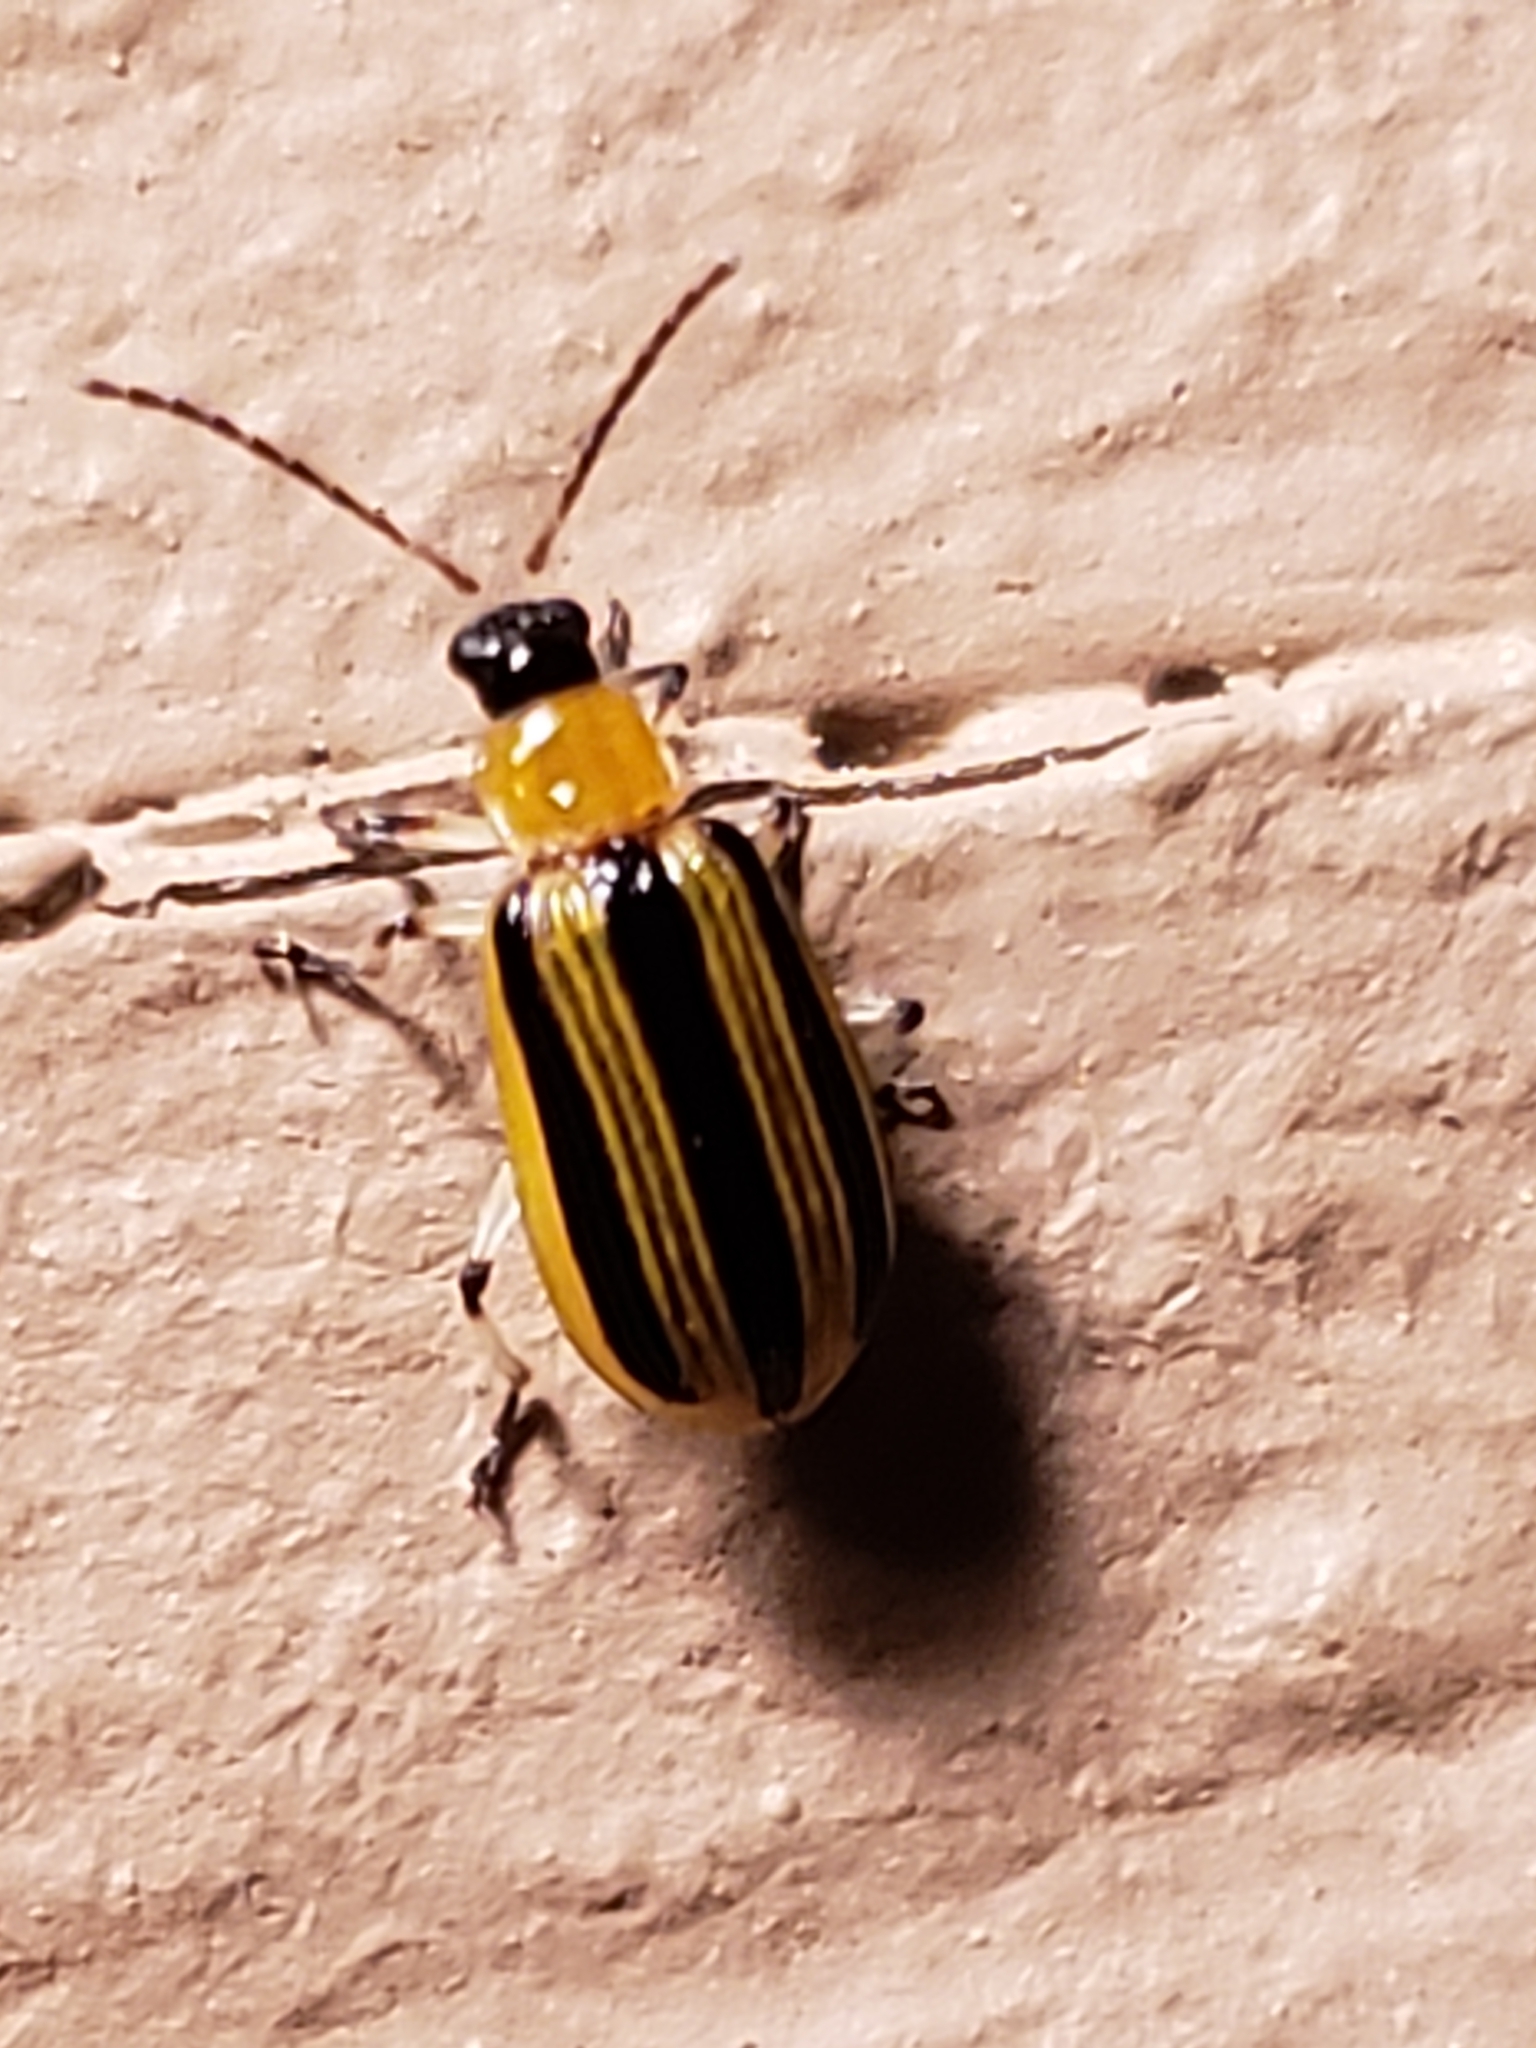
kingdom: Animalia
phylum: Arthropoda
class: Insecta
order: Coleoptera
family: Chrysomelidae
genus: Acalymma
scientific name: Acalymma vittatum
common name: Striped cucumber beetle
